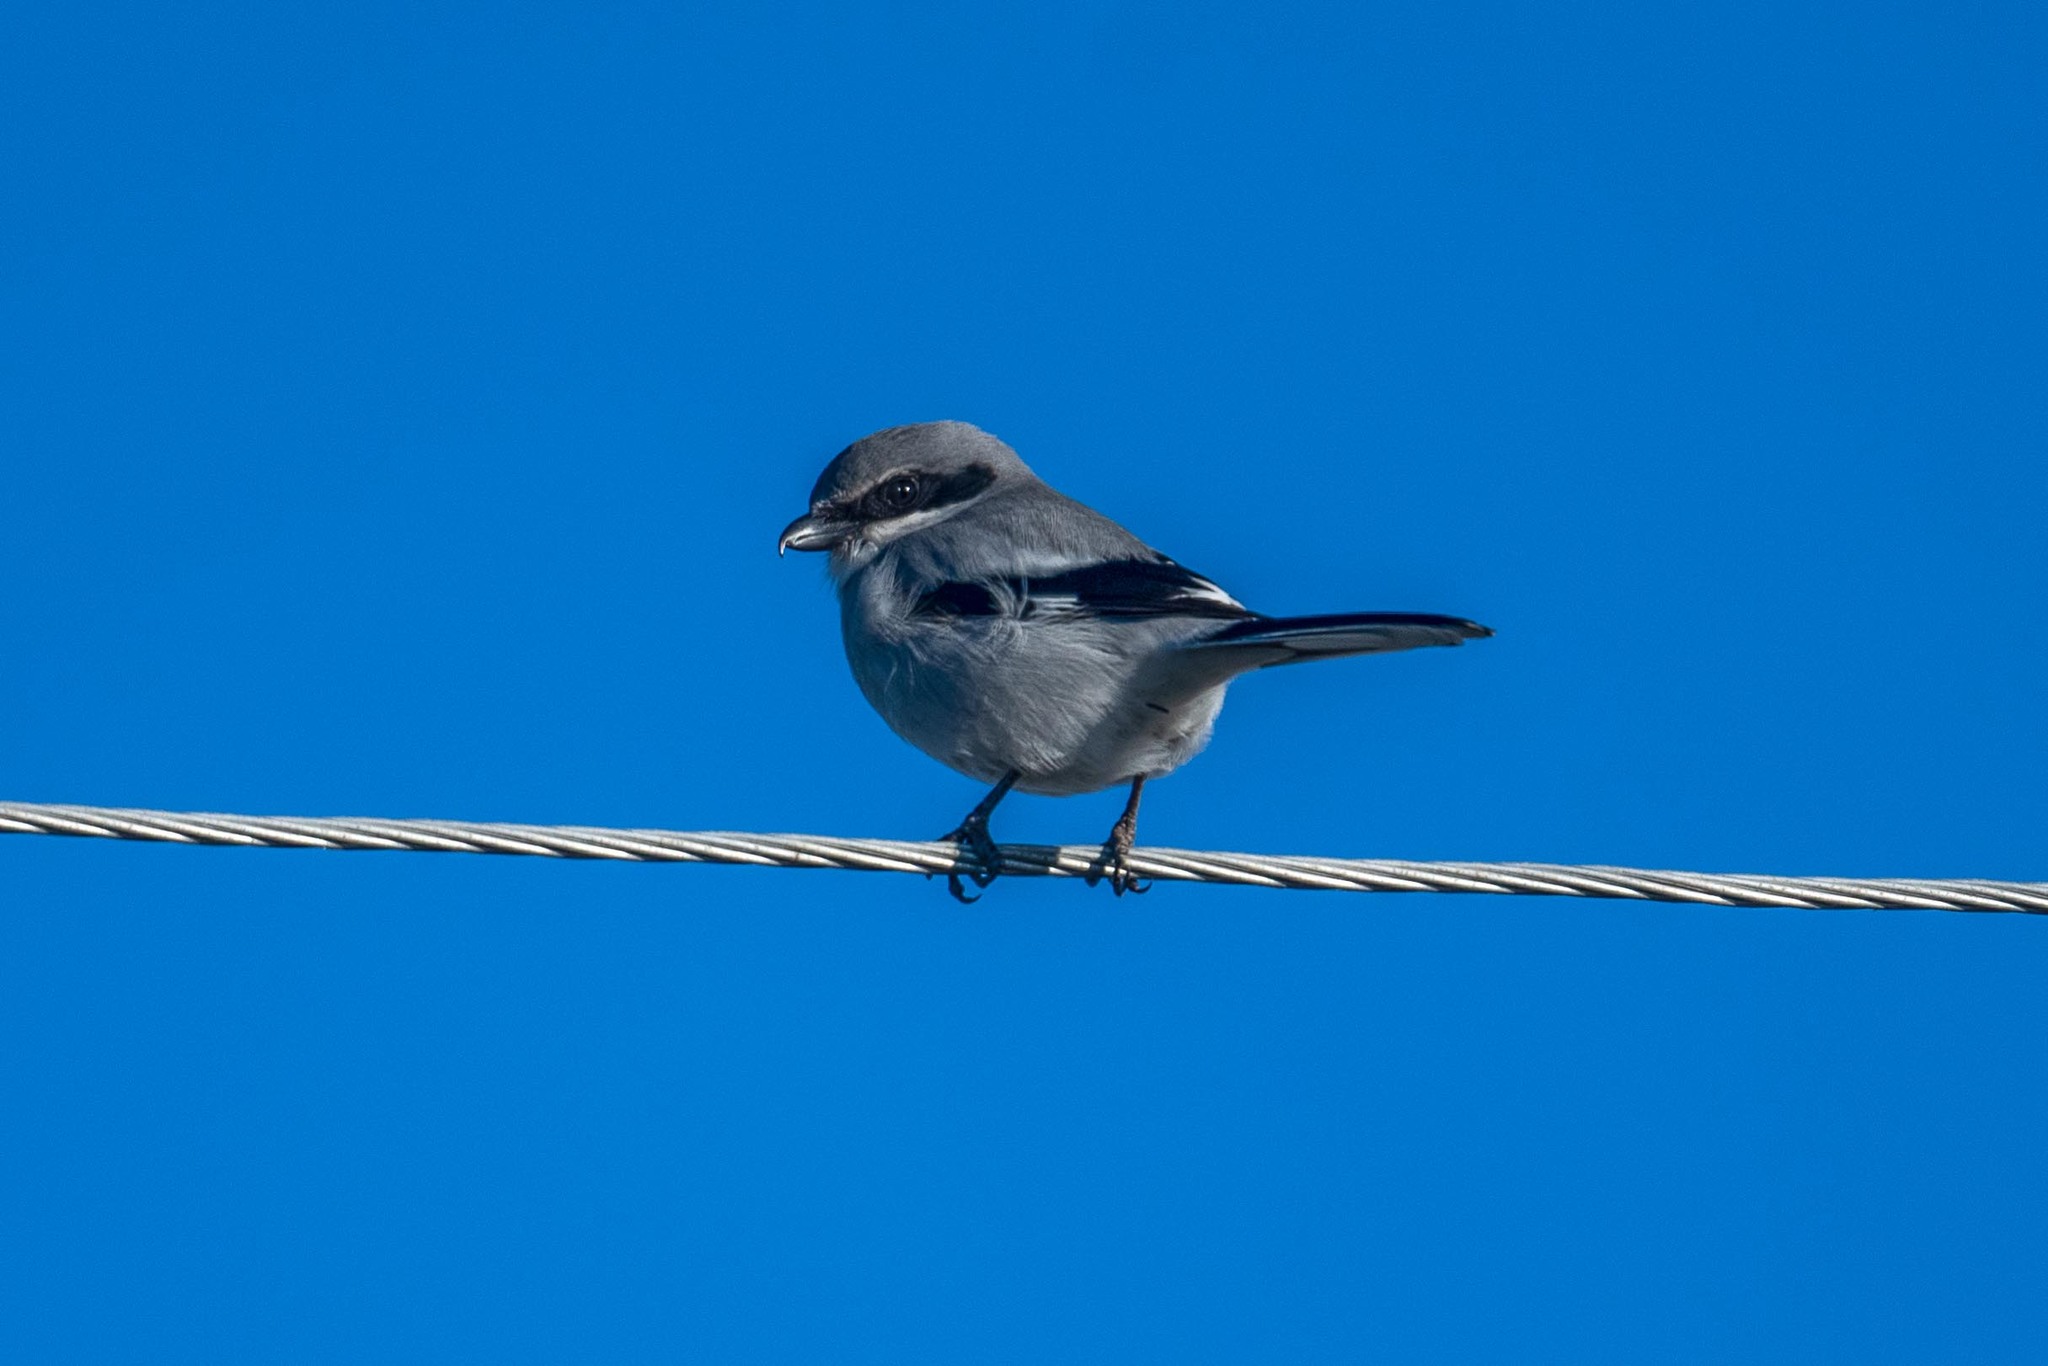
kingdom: Animalia
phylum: Chordata
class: Aves
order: Passeriformes
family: Laniidae
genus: Lanius
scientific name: Lanius ludovicianus
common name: Loggerhead shrike
